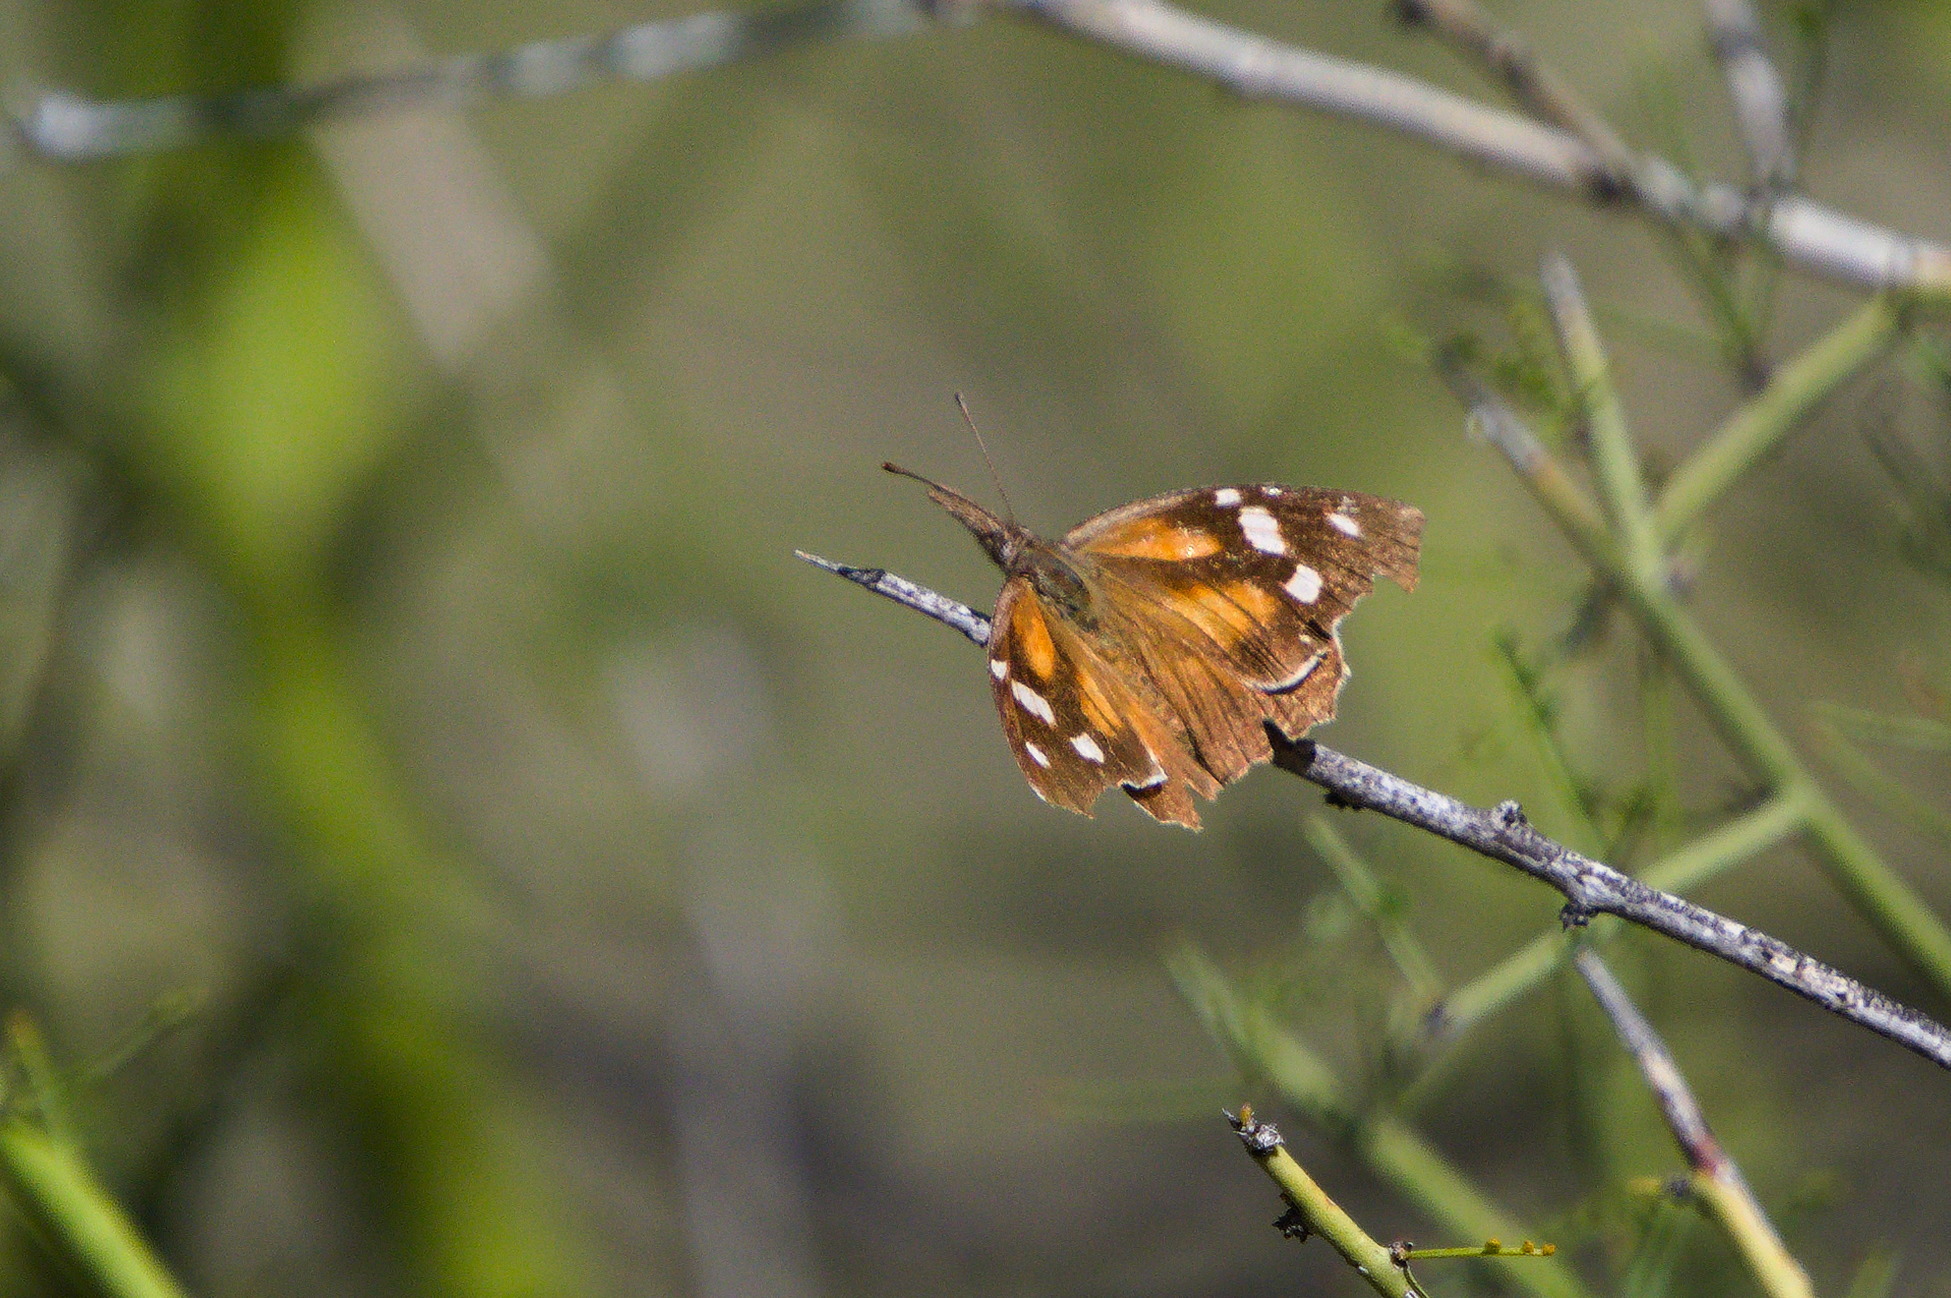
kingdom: Animalia
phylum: Arthropoda
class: Insecta
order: Lepidoptera
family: Nymphalidae
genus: Libytheana
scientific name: Libytheana carinenta
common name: American snout
